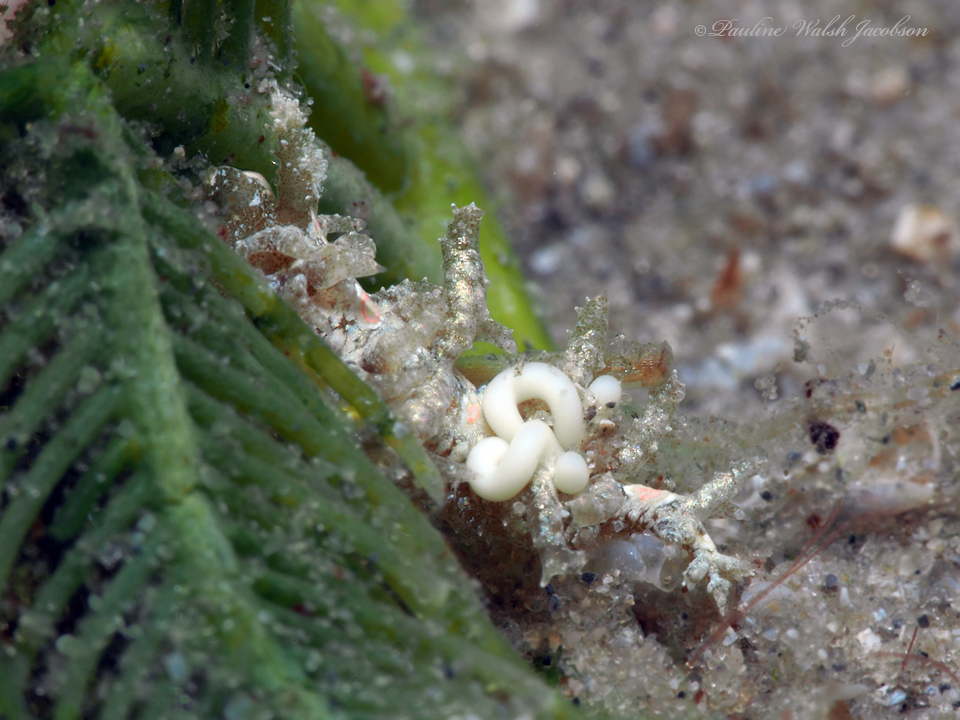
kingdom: Animalia
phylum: Mollusca
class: Gastropoda
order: Nudibranchia
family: Aeolidiidae
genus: Limenandra
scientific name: Limenandra nodosa
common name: Warty baeolidia
